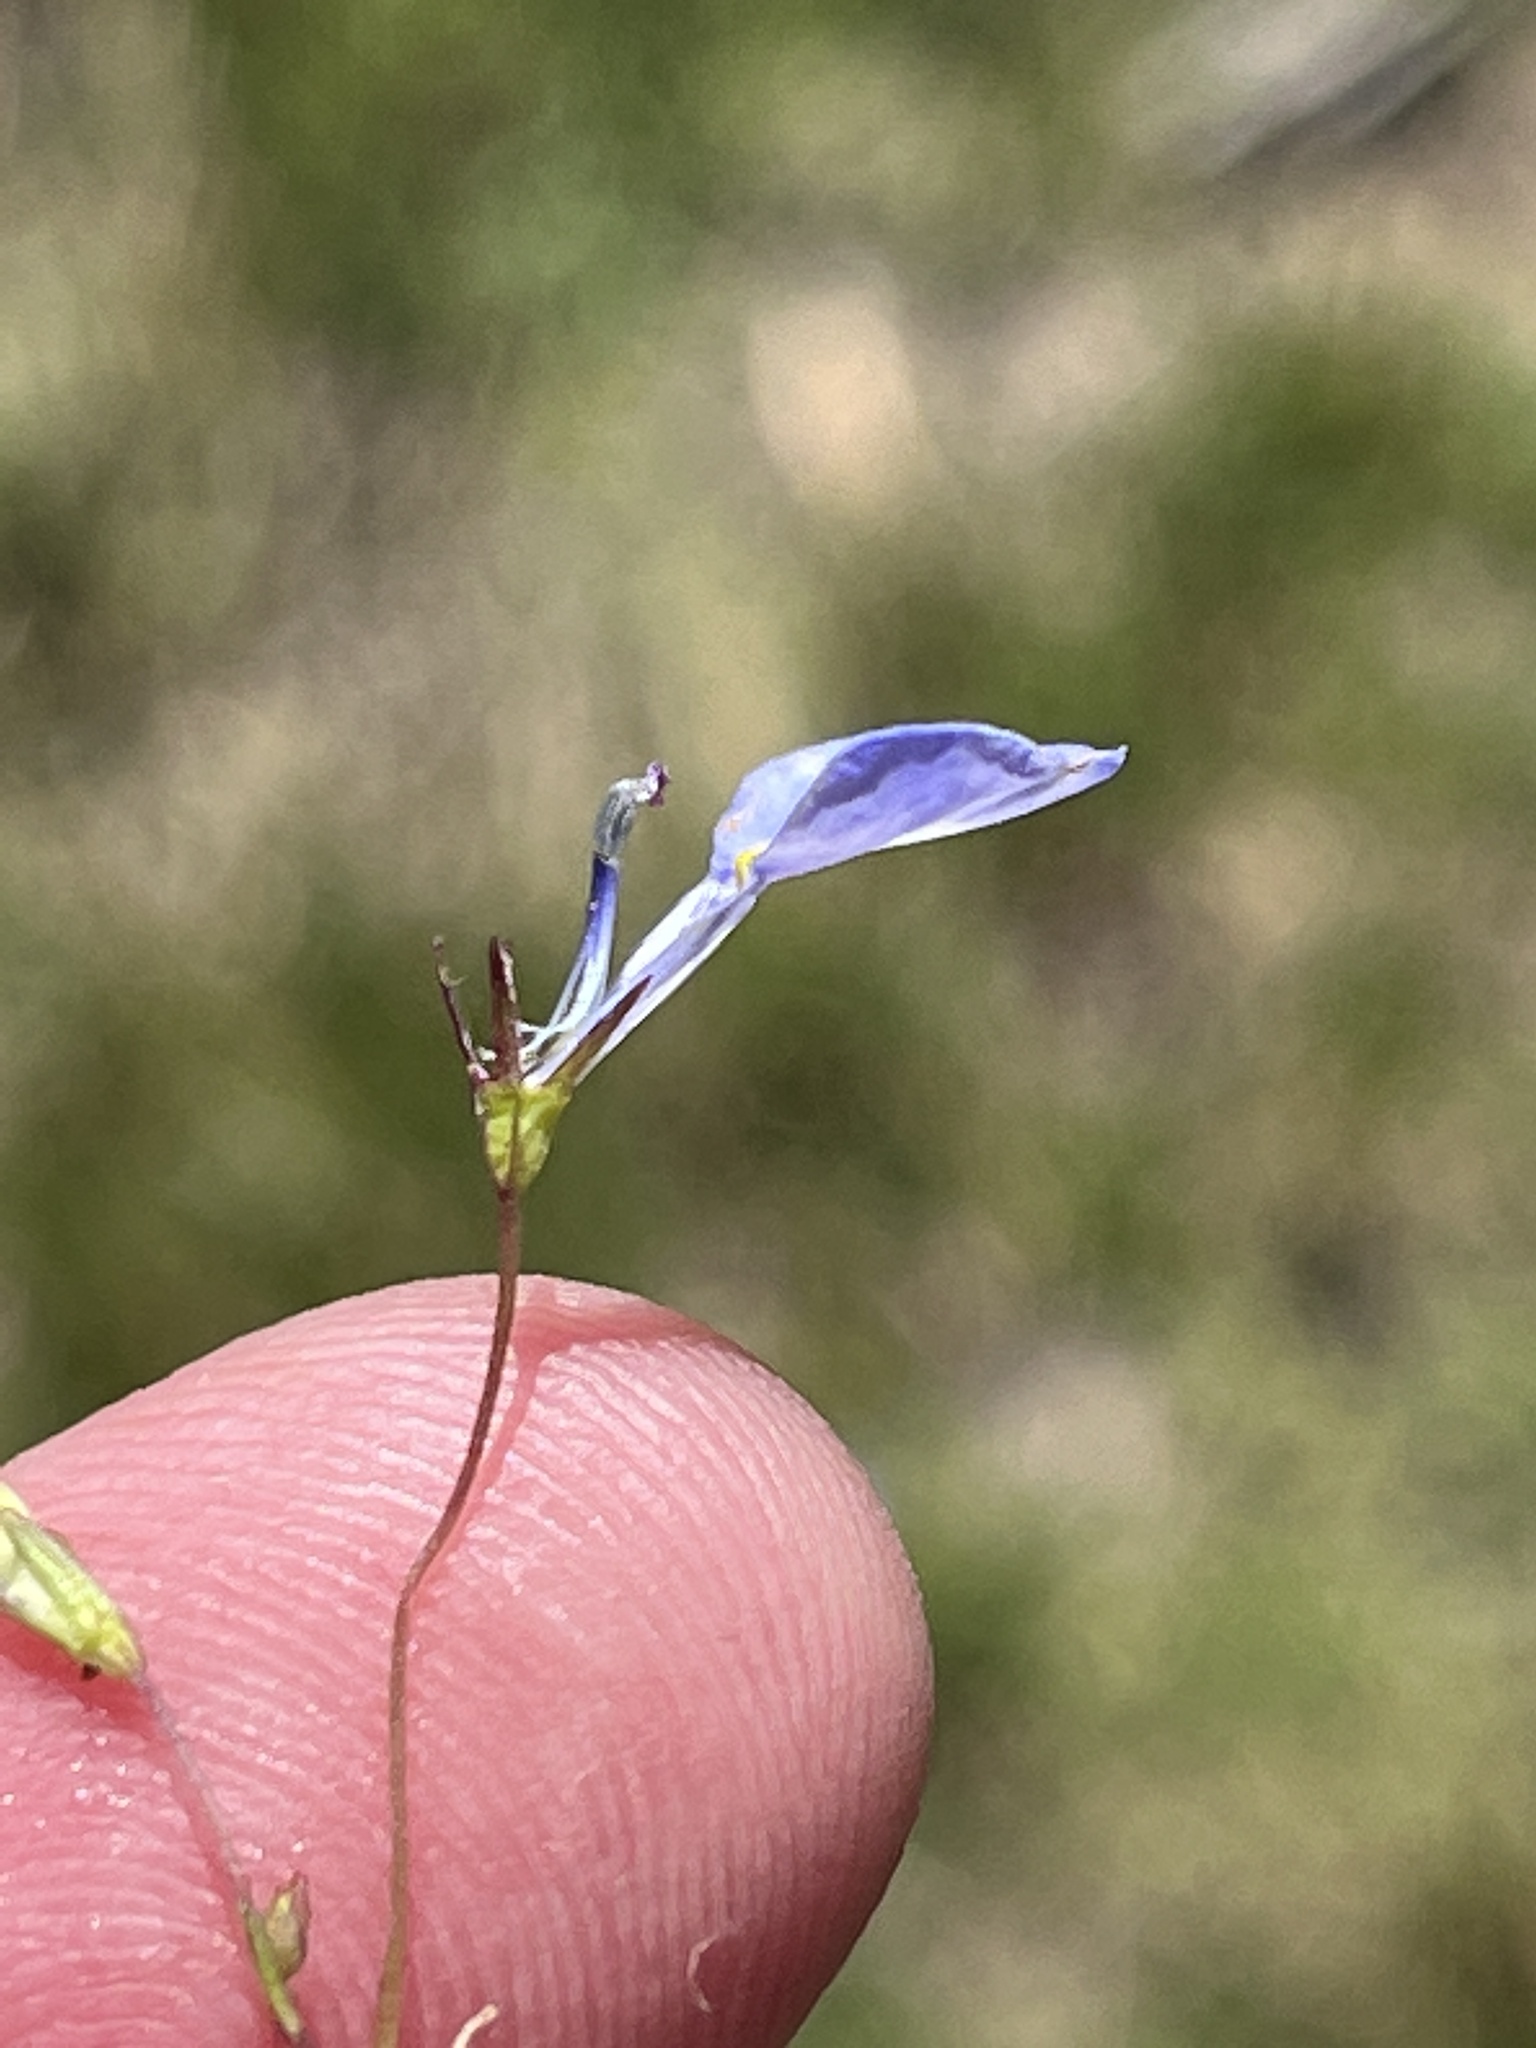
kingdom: Plantae
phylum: Tracheophyta
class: Magnoliopsida
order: Asterales
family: Campanulaceae
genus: Lobelia
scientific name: Lobelia erinus
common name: Edging lobelia
